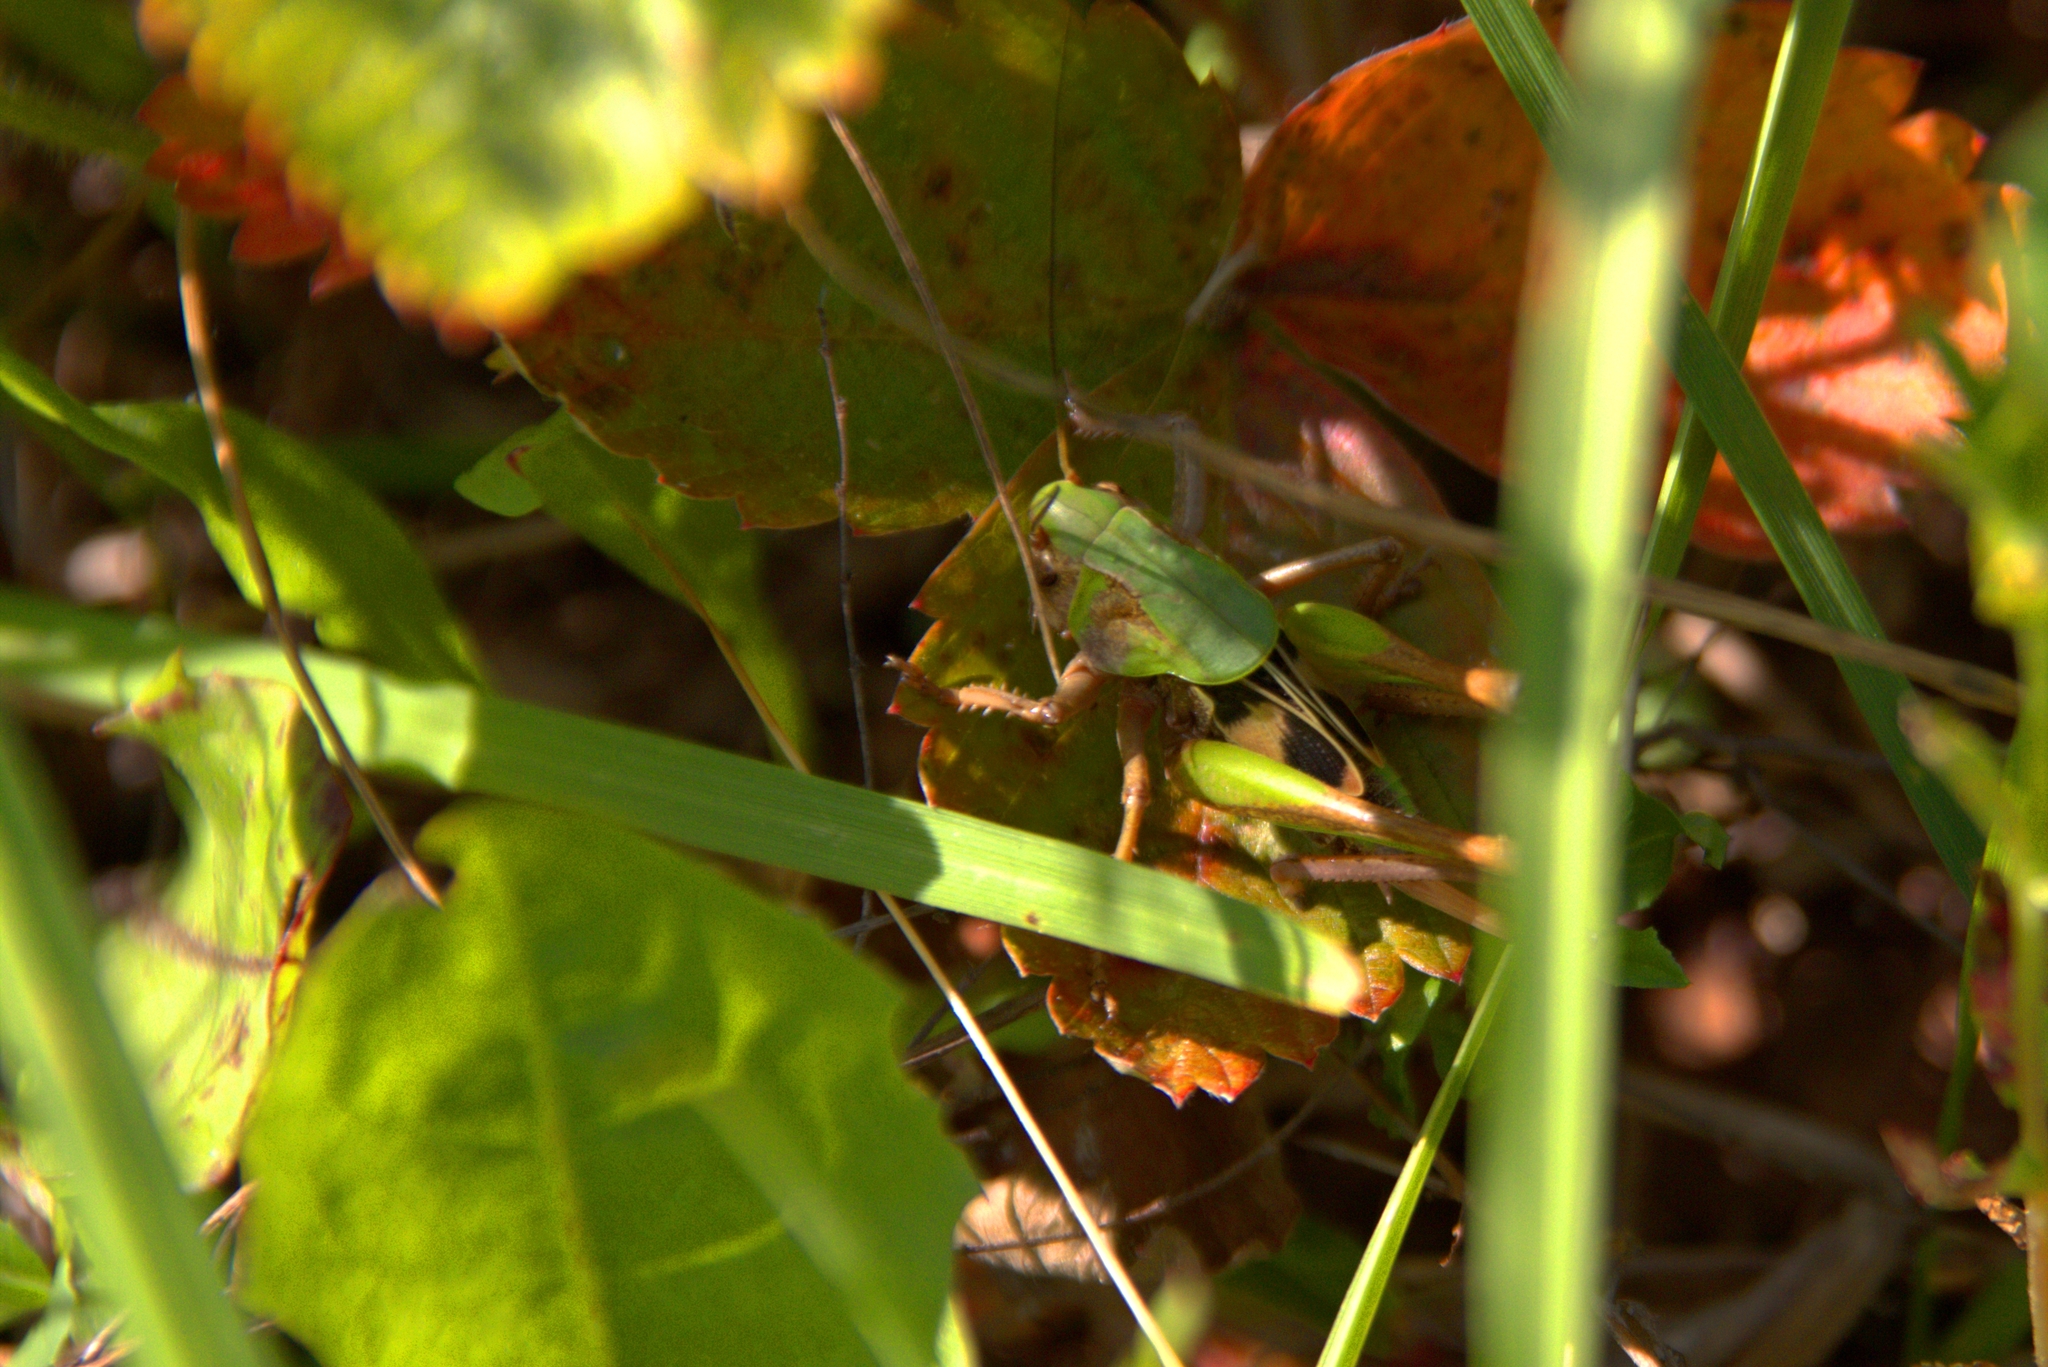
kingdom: Animalia
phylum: Arthropoda
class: Insecta
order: Orthoptera
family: Tettigoniidae
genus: Decticus
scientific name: Decticus verrucivorus
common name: Wart-biter
